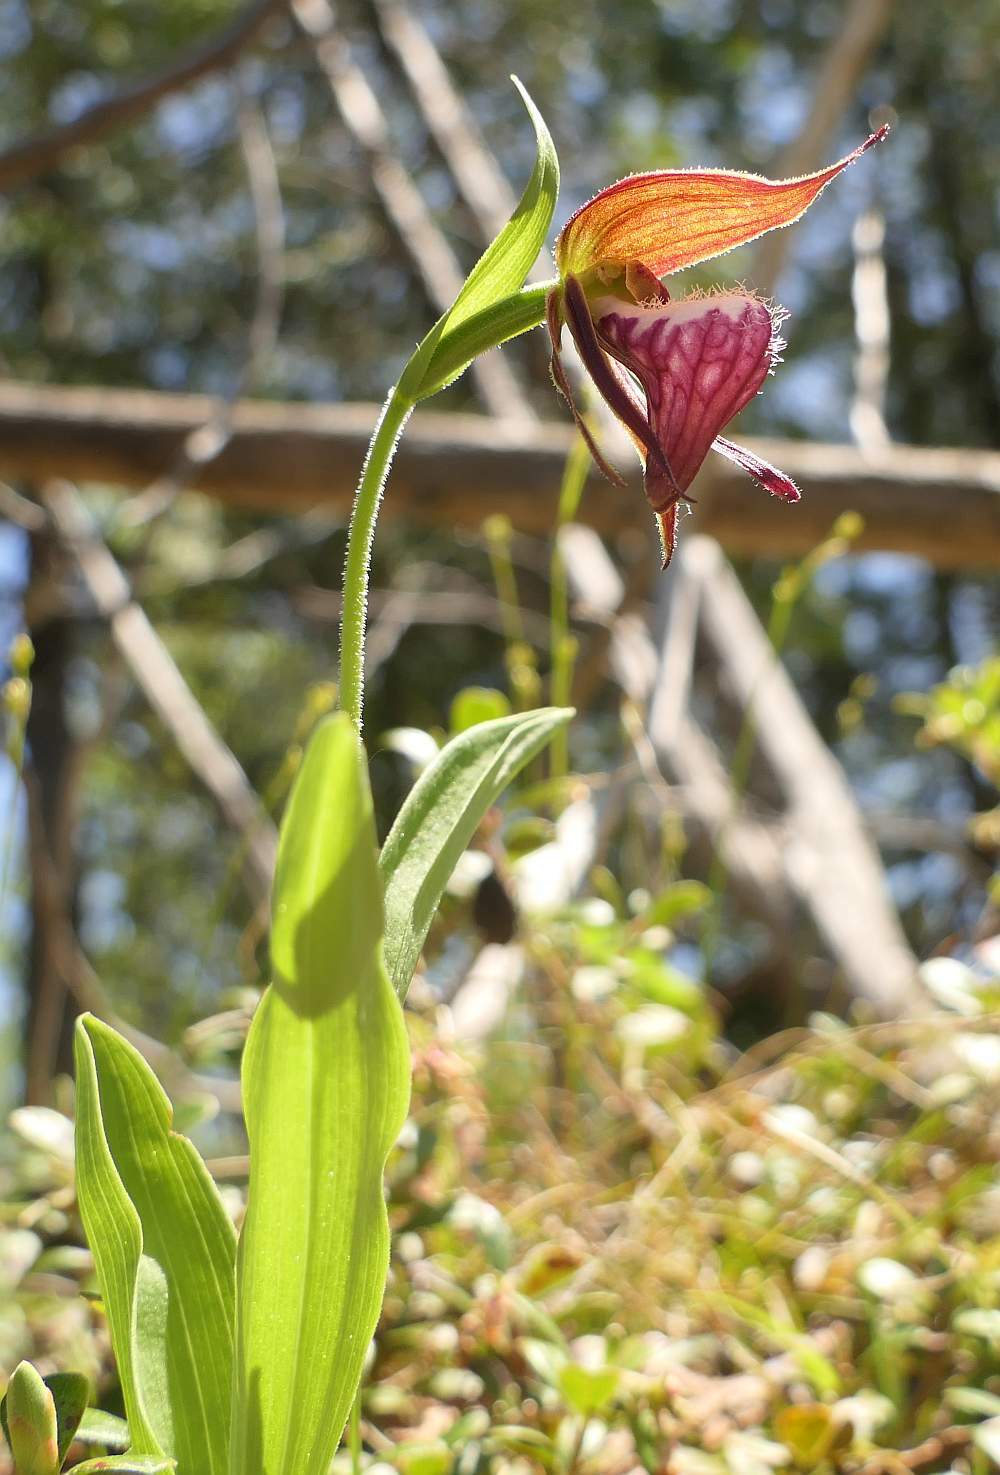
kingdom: Plantae
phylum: Tracheophyta
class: Liliopsida
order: Asparagales
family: Orchidaceae
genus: Cypripedium
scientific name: Cypripedium arietinum
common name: Ram's-head
